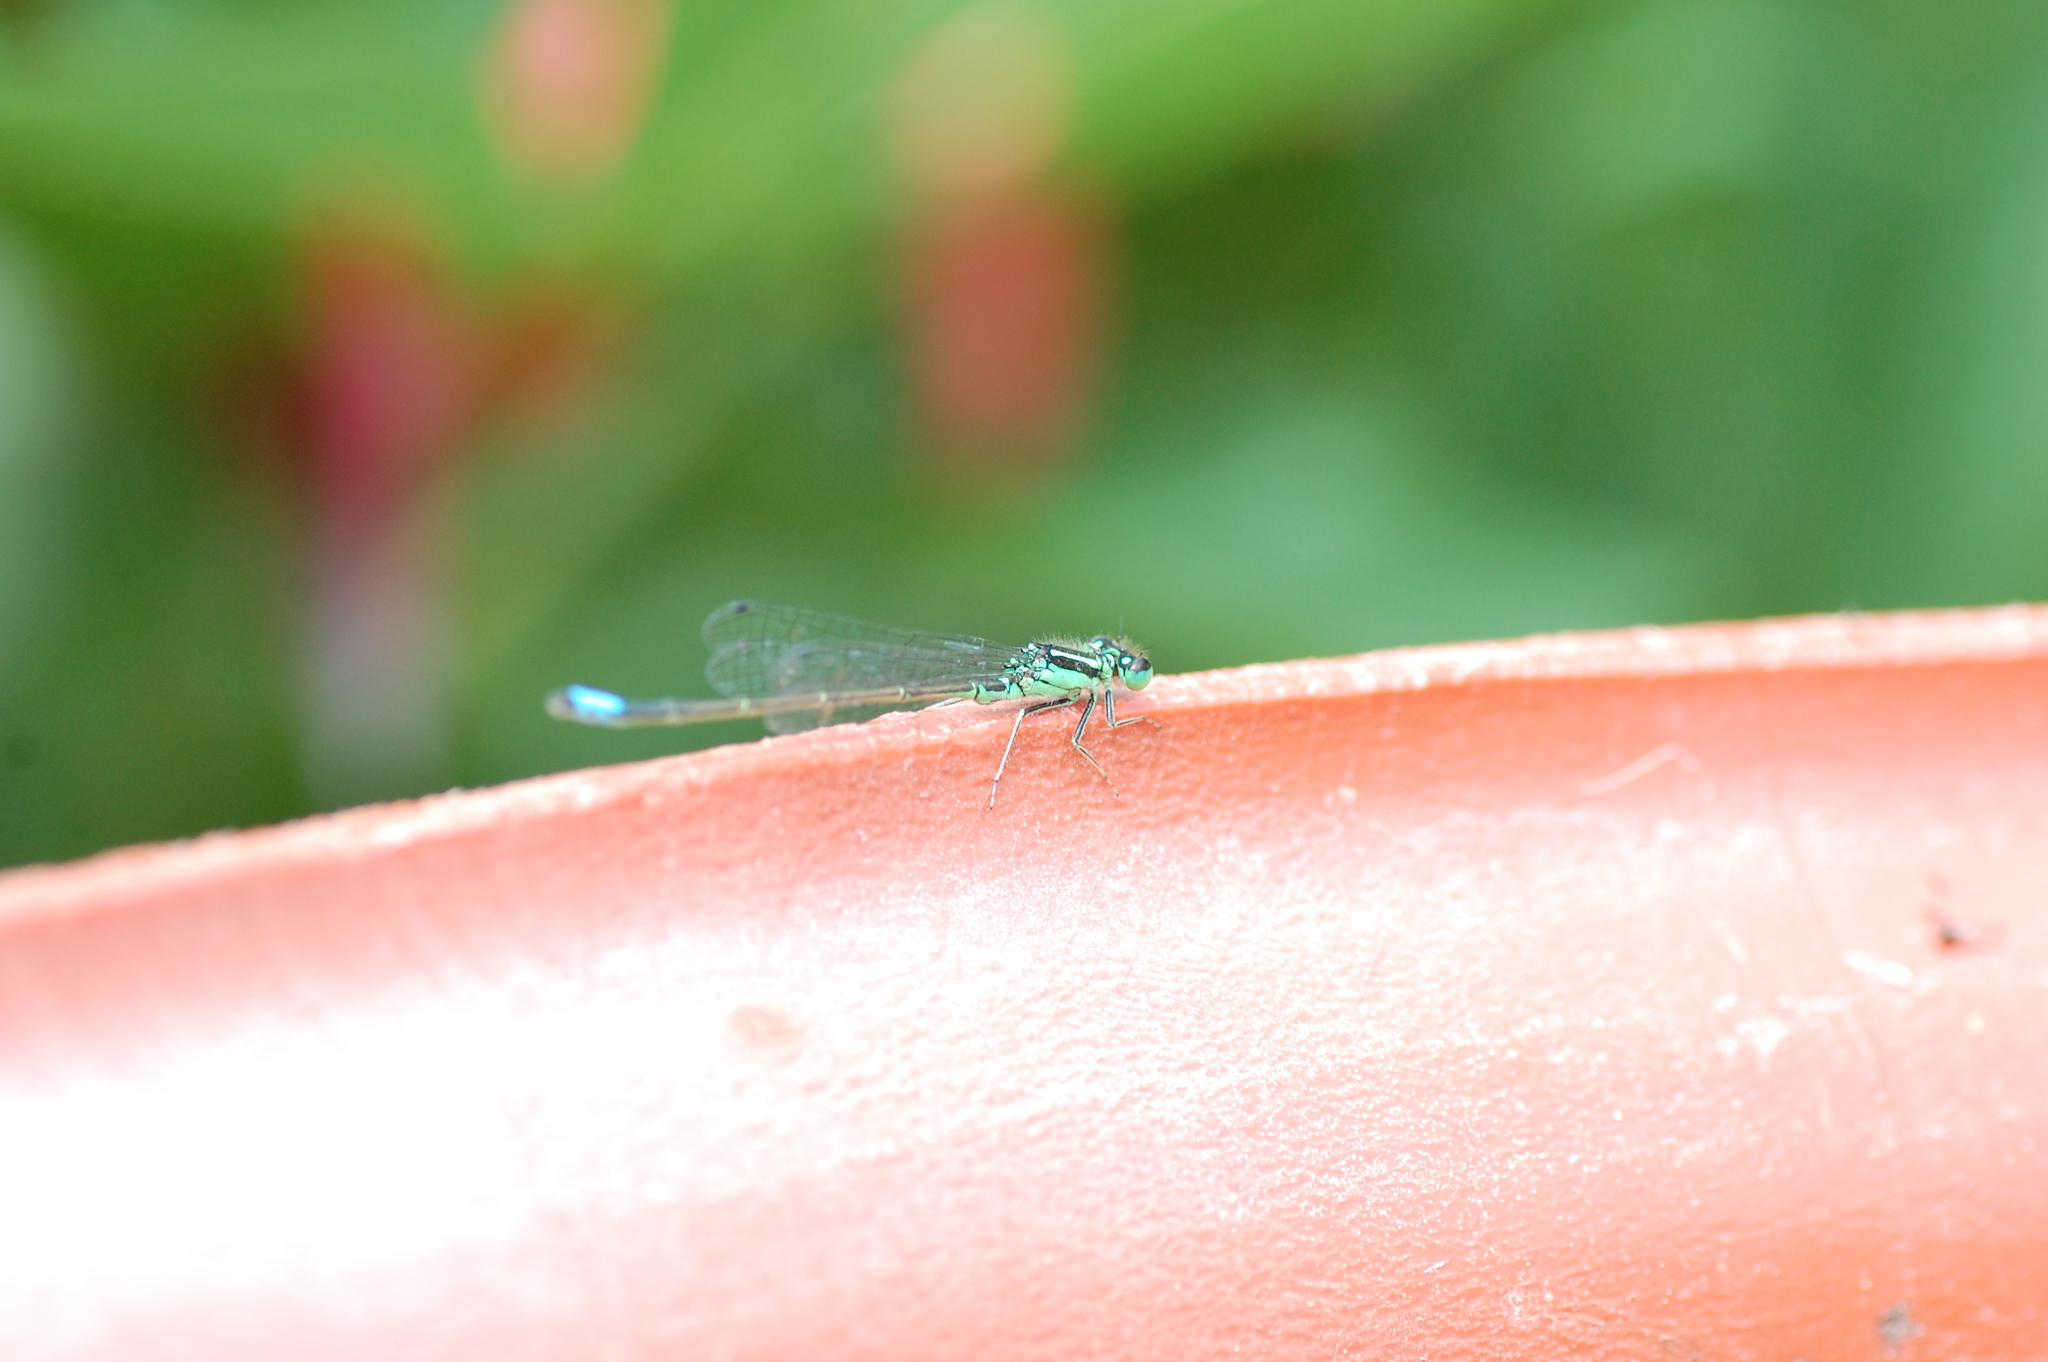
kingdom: Animalia
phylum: Arthropoda
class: Insecta
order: Odonata
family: Coenagrionidae
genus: Ischnura
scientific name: Ischnura verticalis
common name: Eastern forktail
